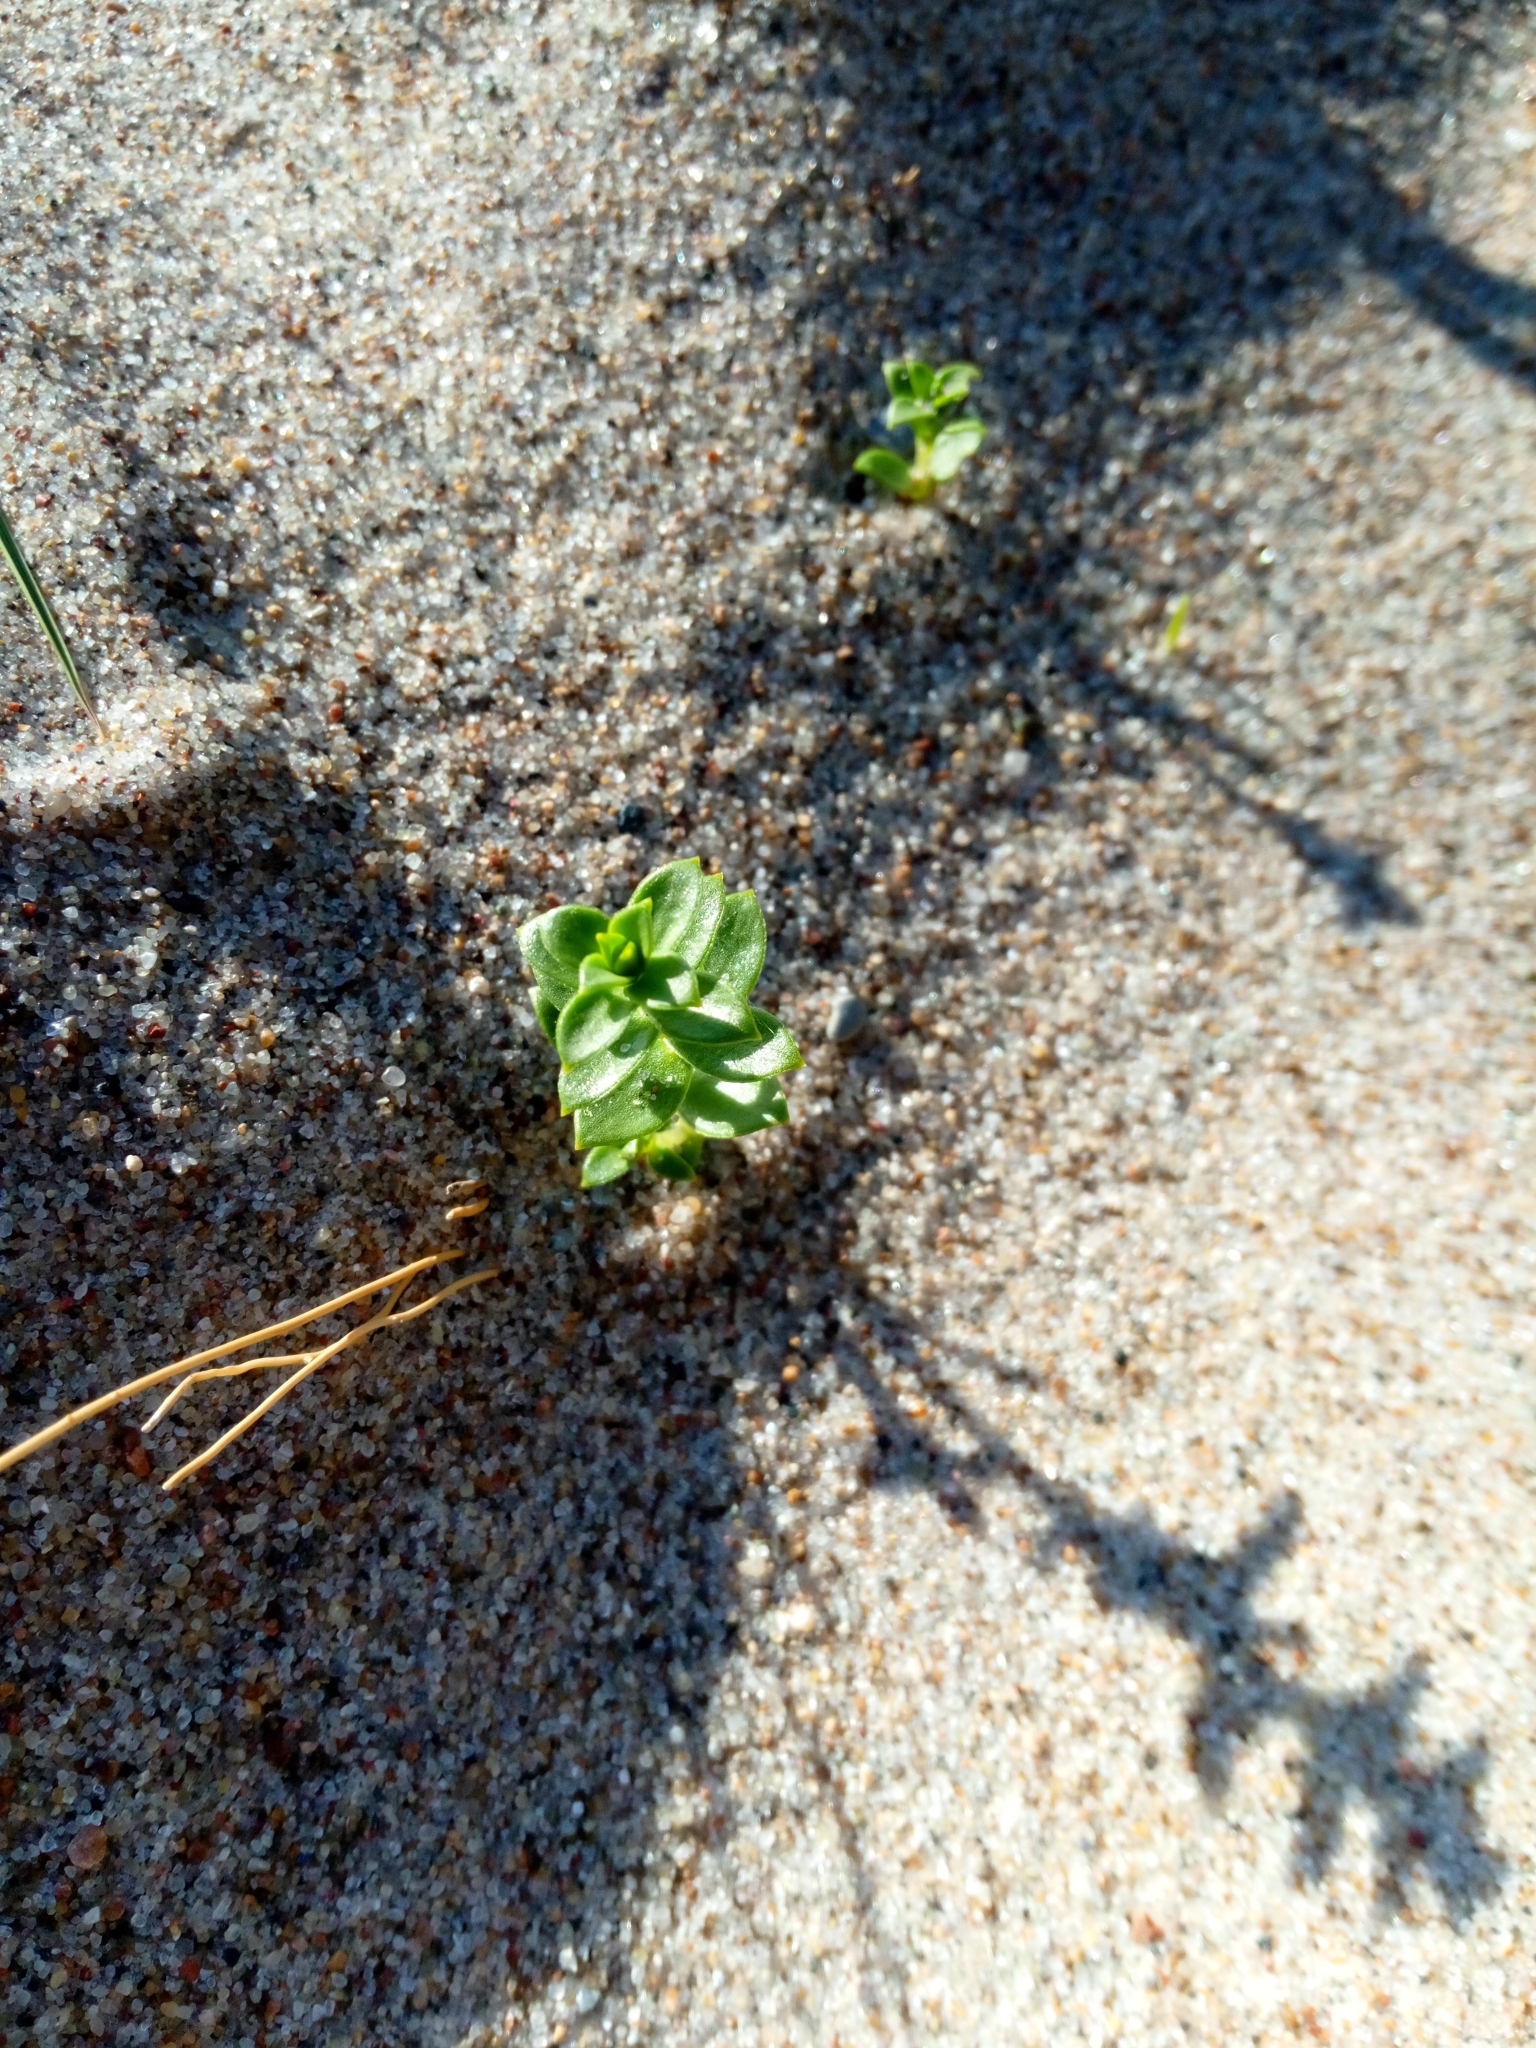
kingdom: Plantae
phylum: Tracheophyta
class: Magnoliopsida
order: Caryophyllales
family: Caryophyllaceae
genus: Honckenya
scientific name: Honckenya peploides
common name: Sea sandwort
